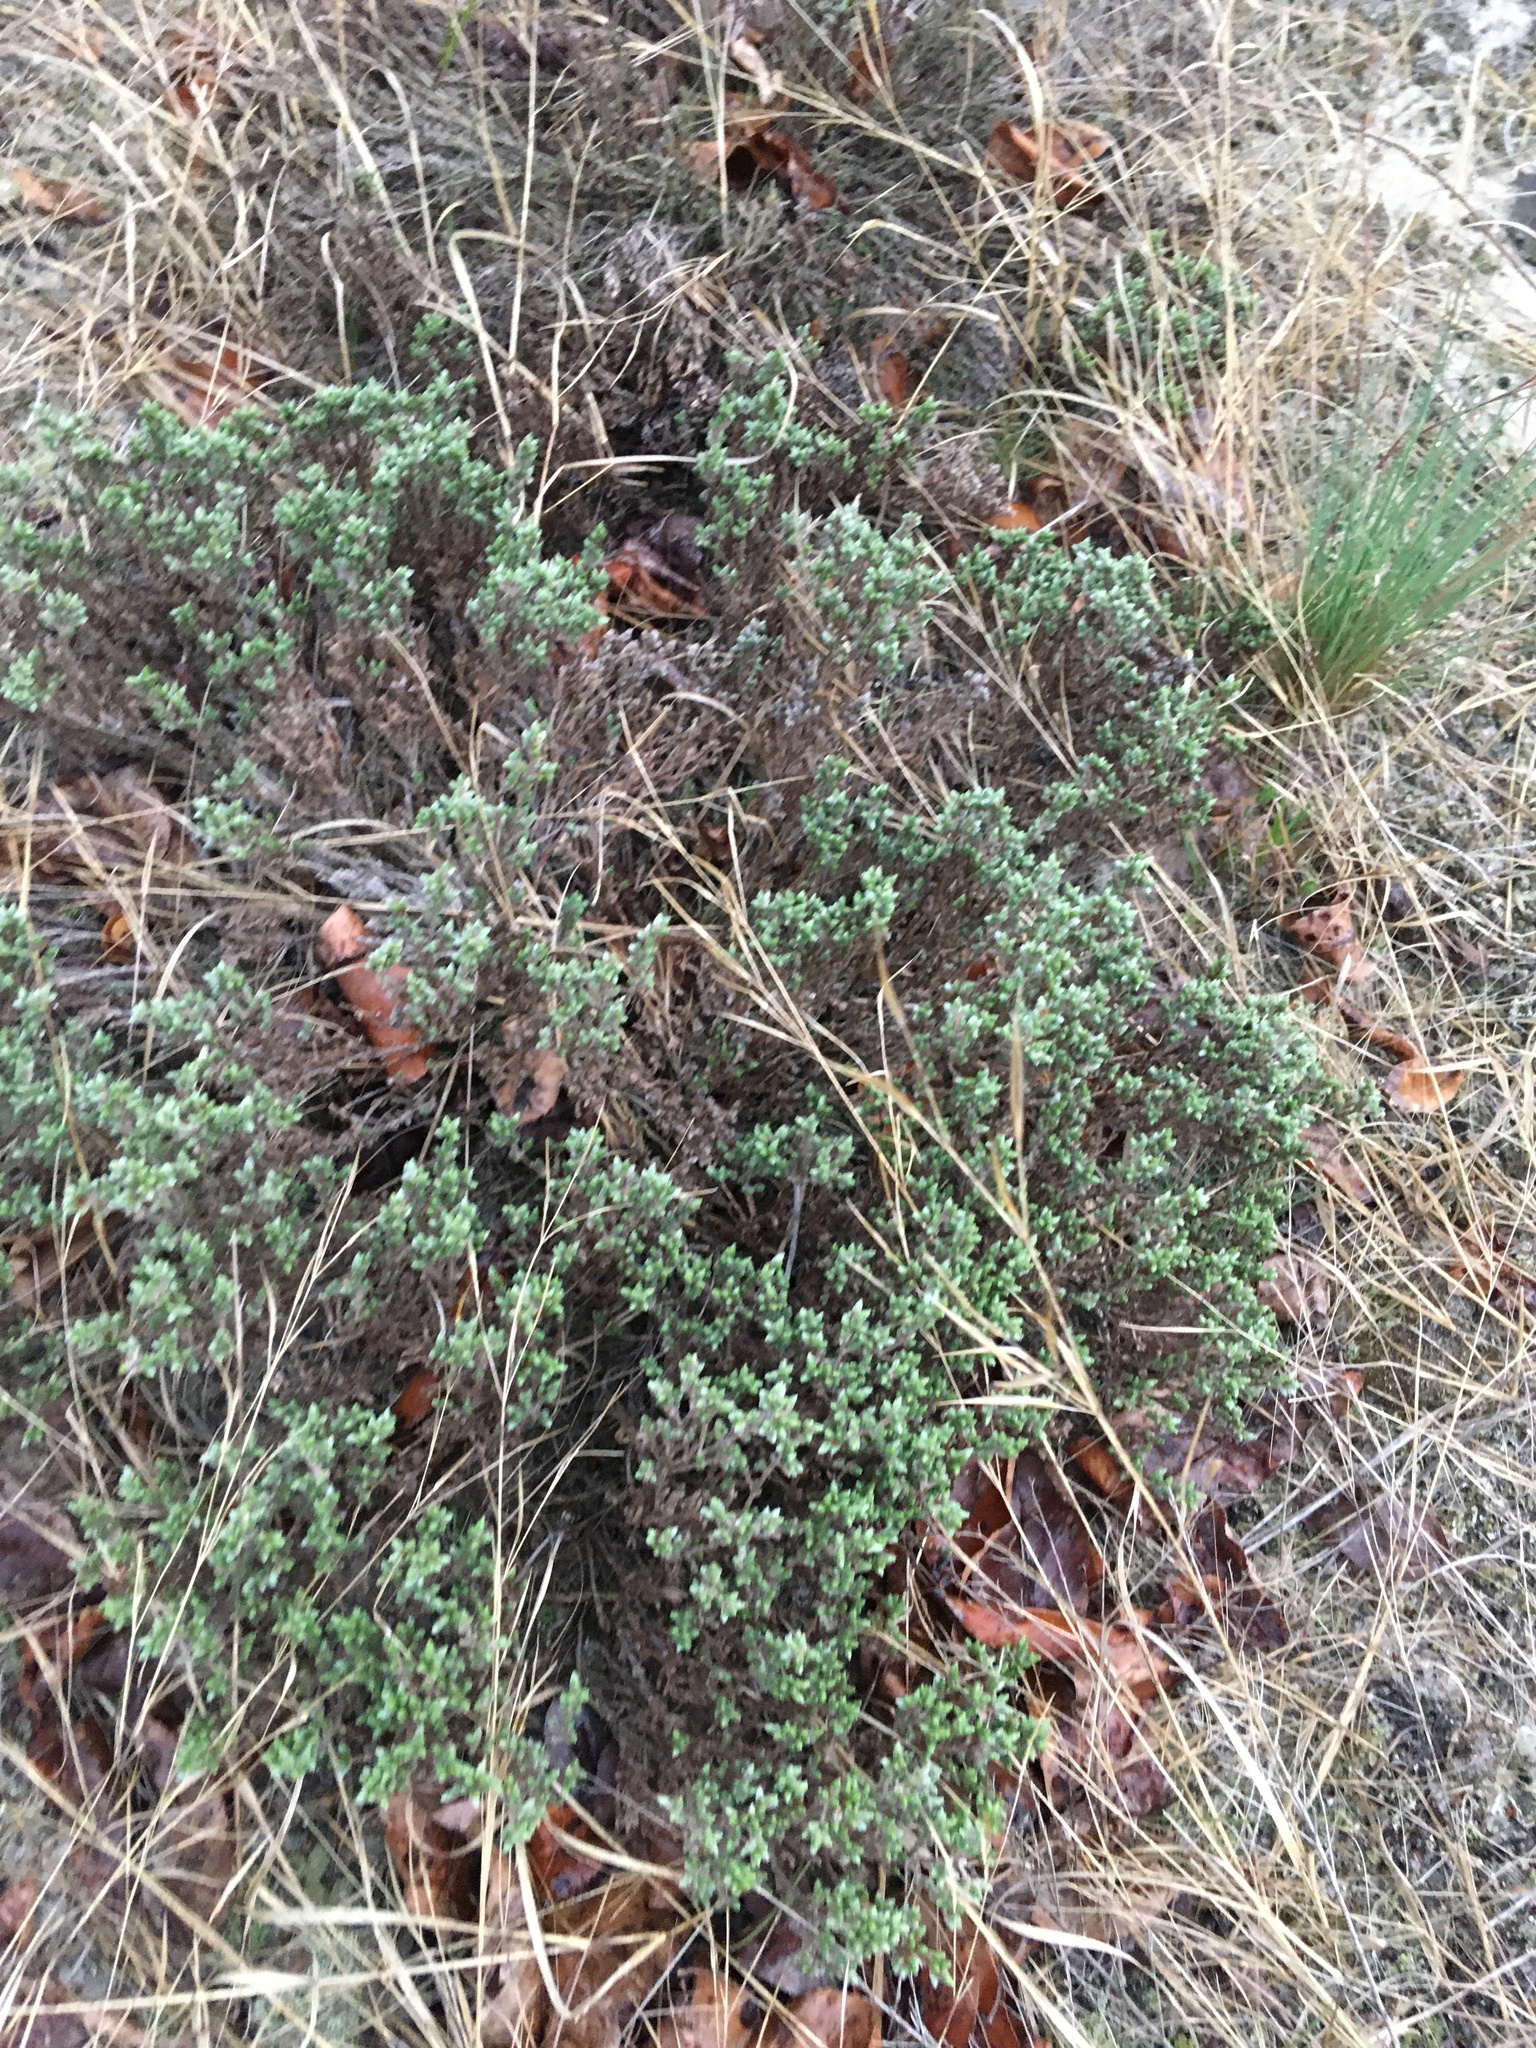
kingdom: Plantae
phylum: Tracheophyta
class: Magnoliopsida
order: Malvales
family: Cistaceae
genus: Hudsonia
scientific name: Hudsonia tomentosa
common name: Beach-heath
